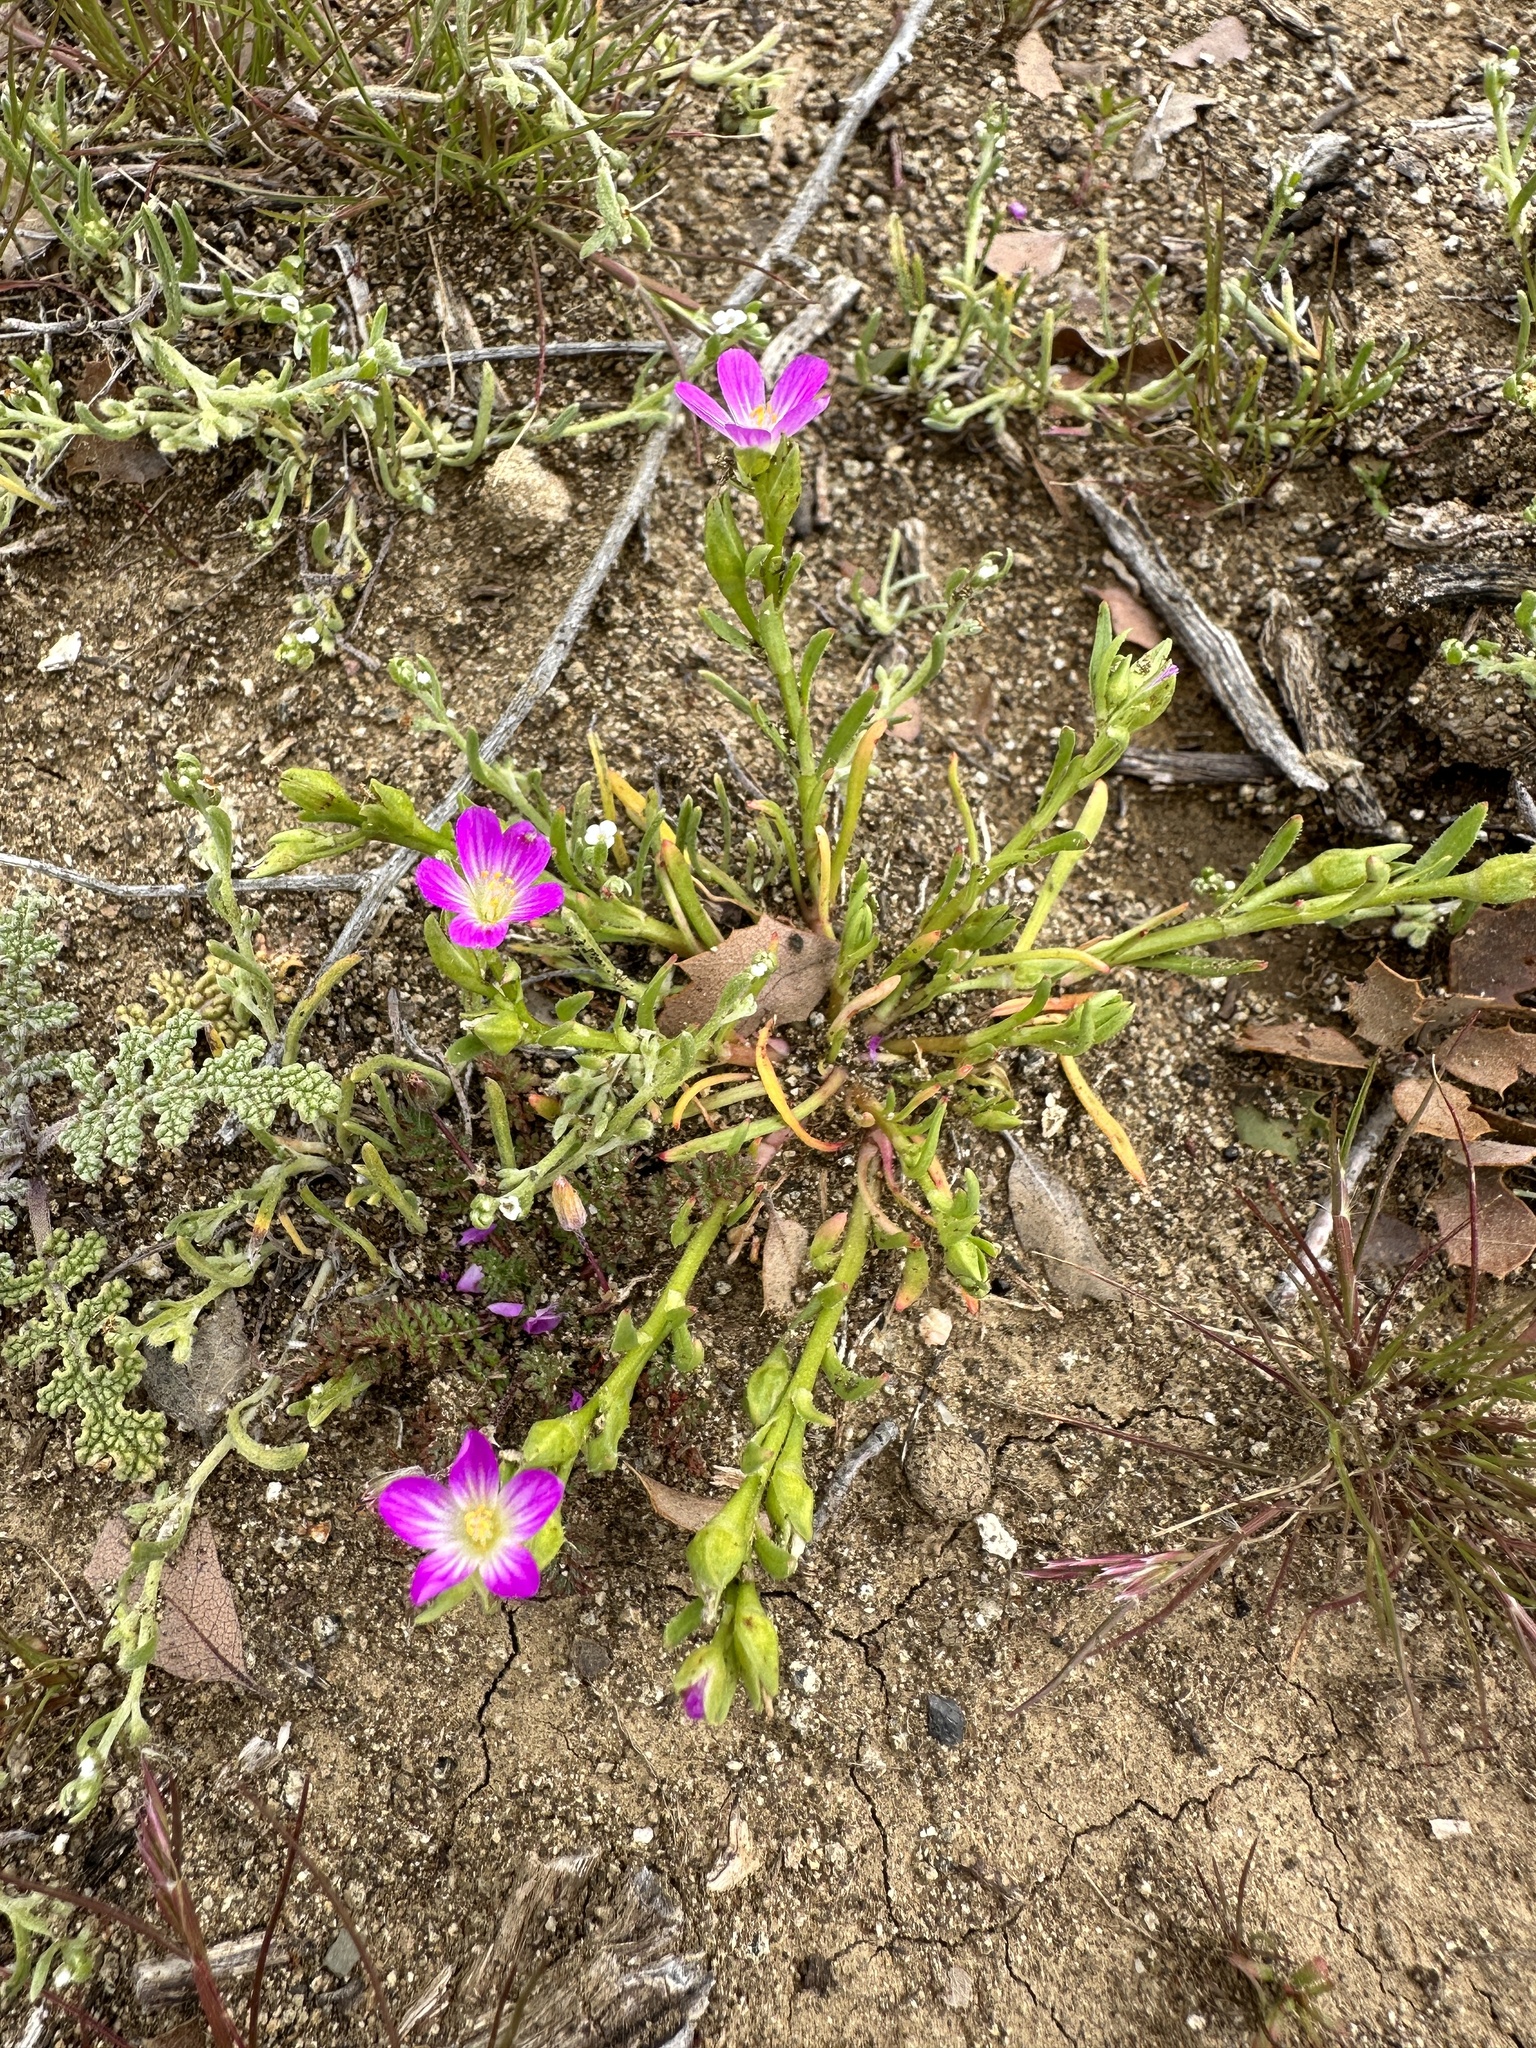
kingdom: Plantae
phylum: Tracheophyta
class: Magnoliopsida
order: Caryophyllales
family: Montiaceae
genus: Calandrinia
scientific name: Calandrinia menziesii
